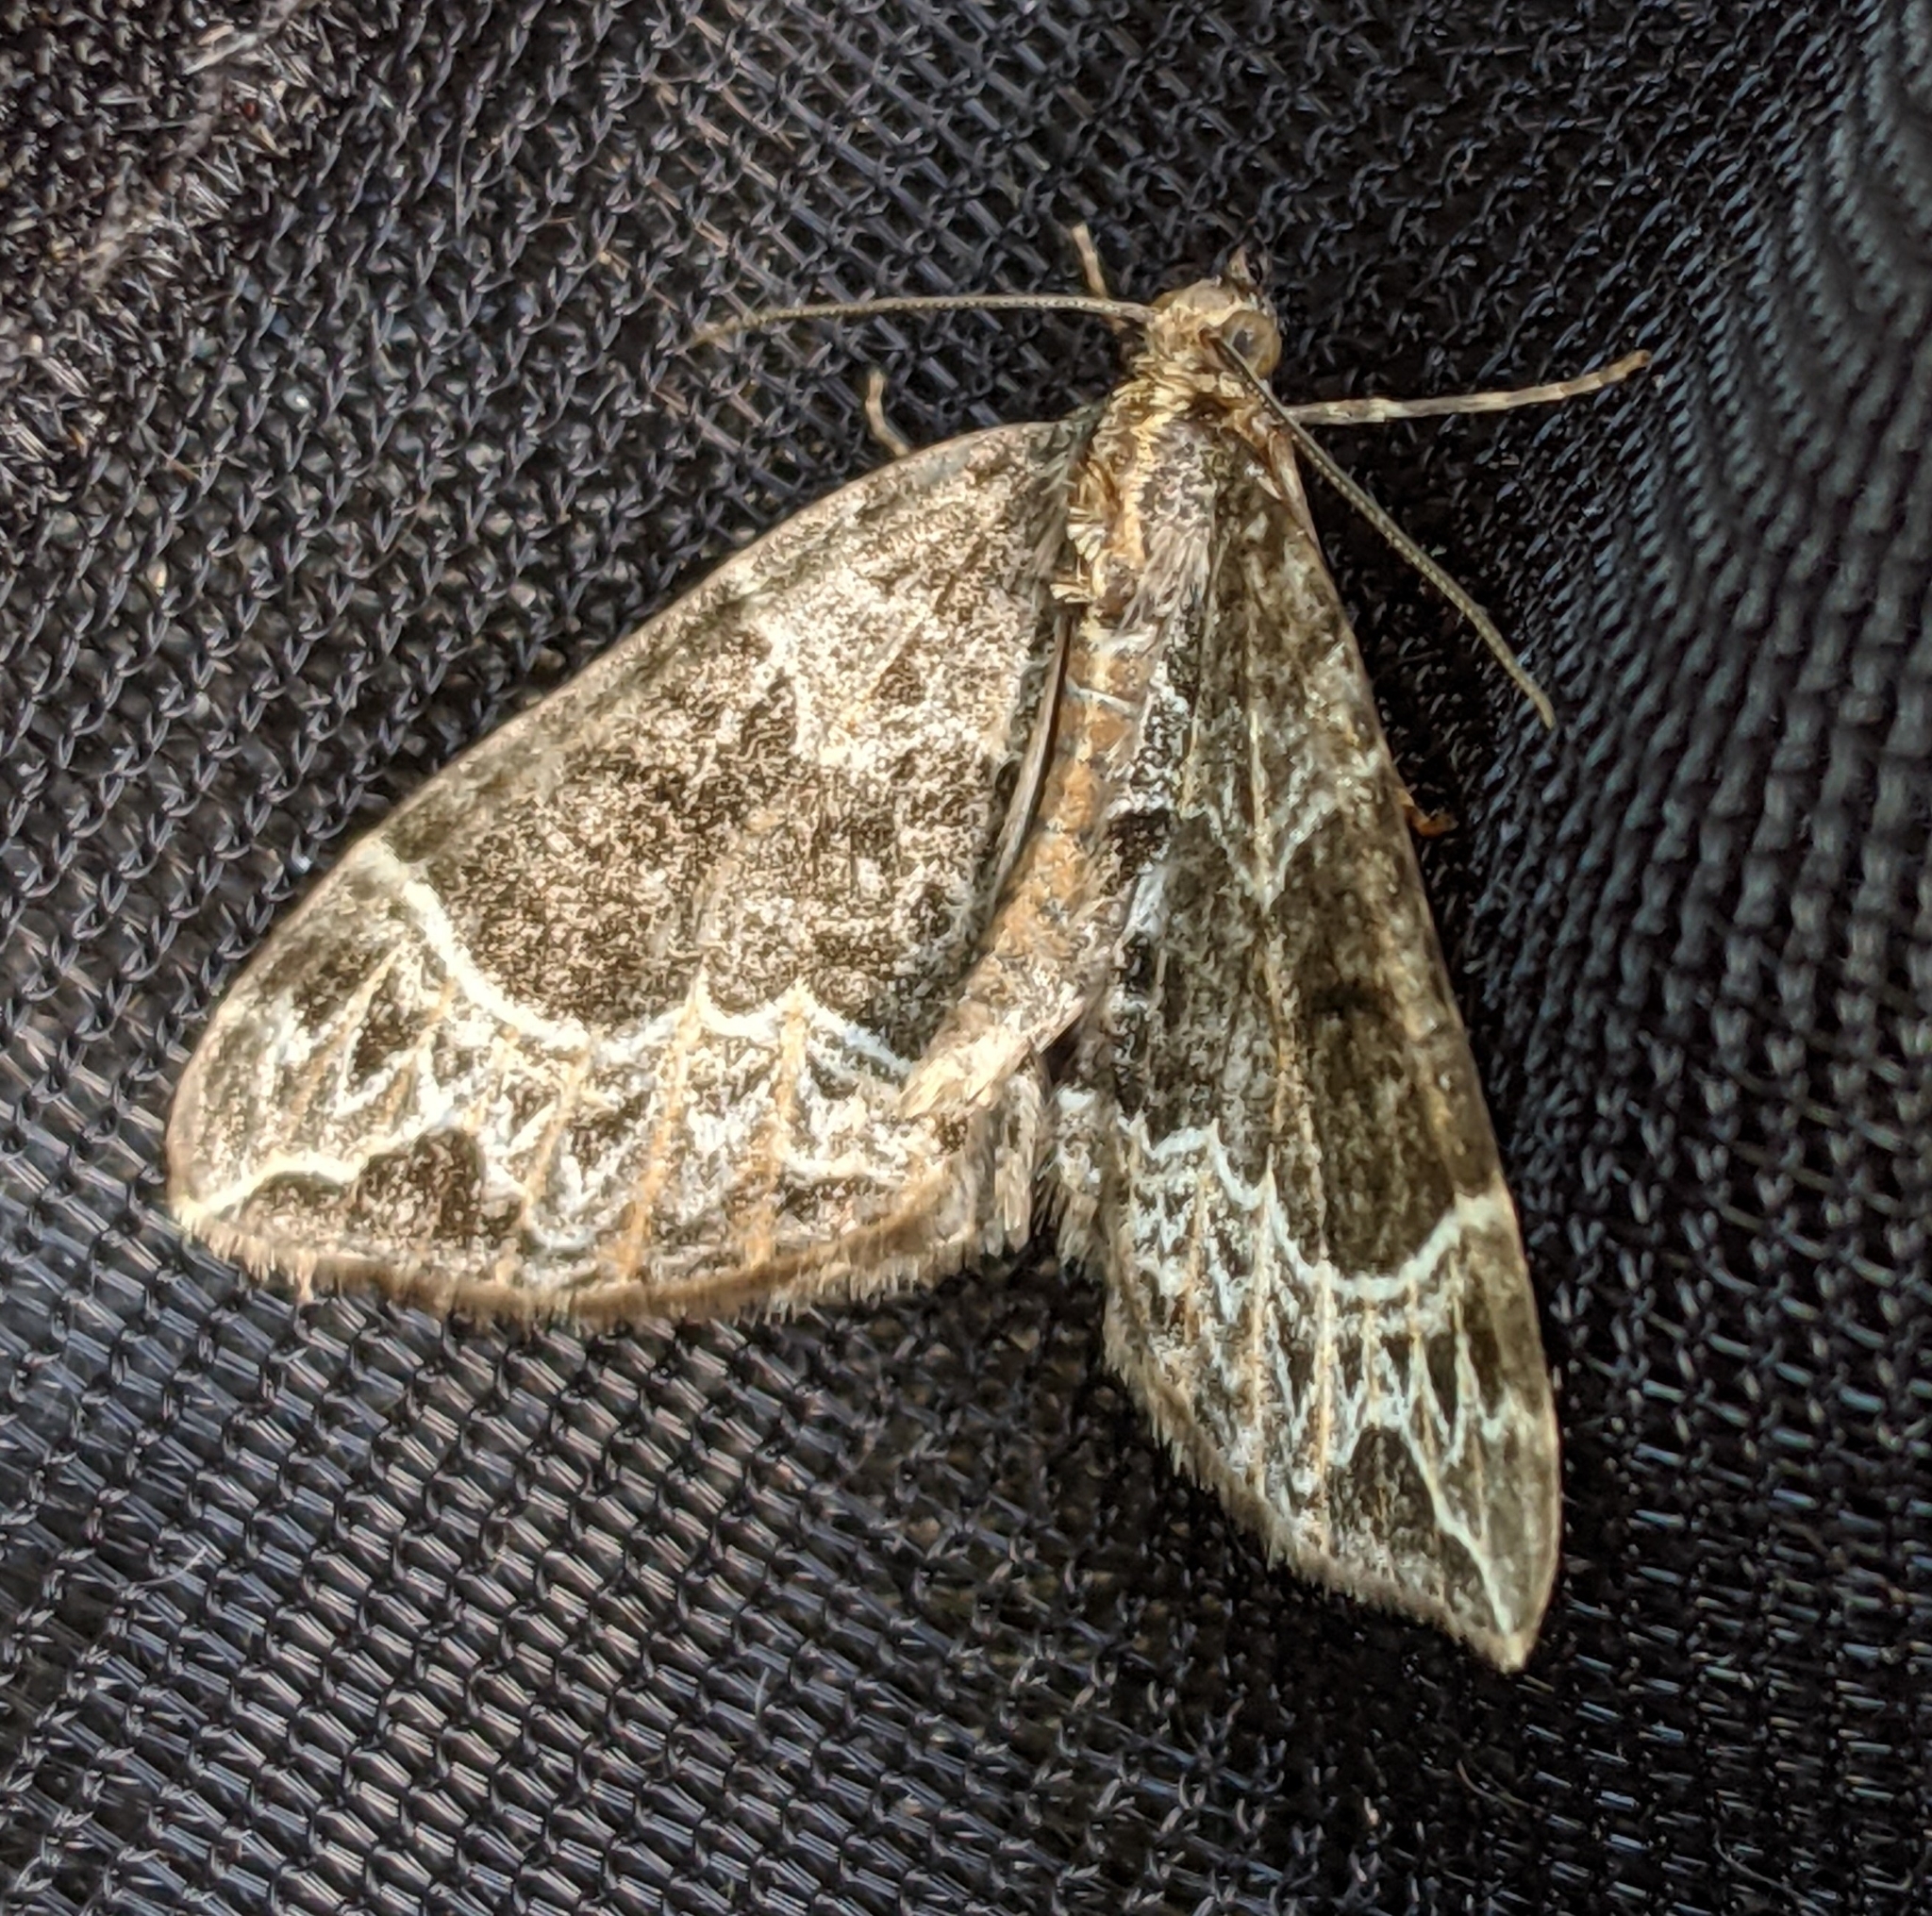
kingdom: Animalia
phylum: Arthropoda
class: Insecta
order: Lepidoptera
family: Geometridae
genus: Ecliptopera
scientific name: Ecliptopera silaceata
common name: Small phoenix
